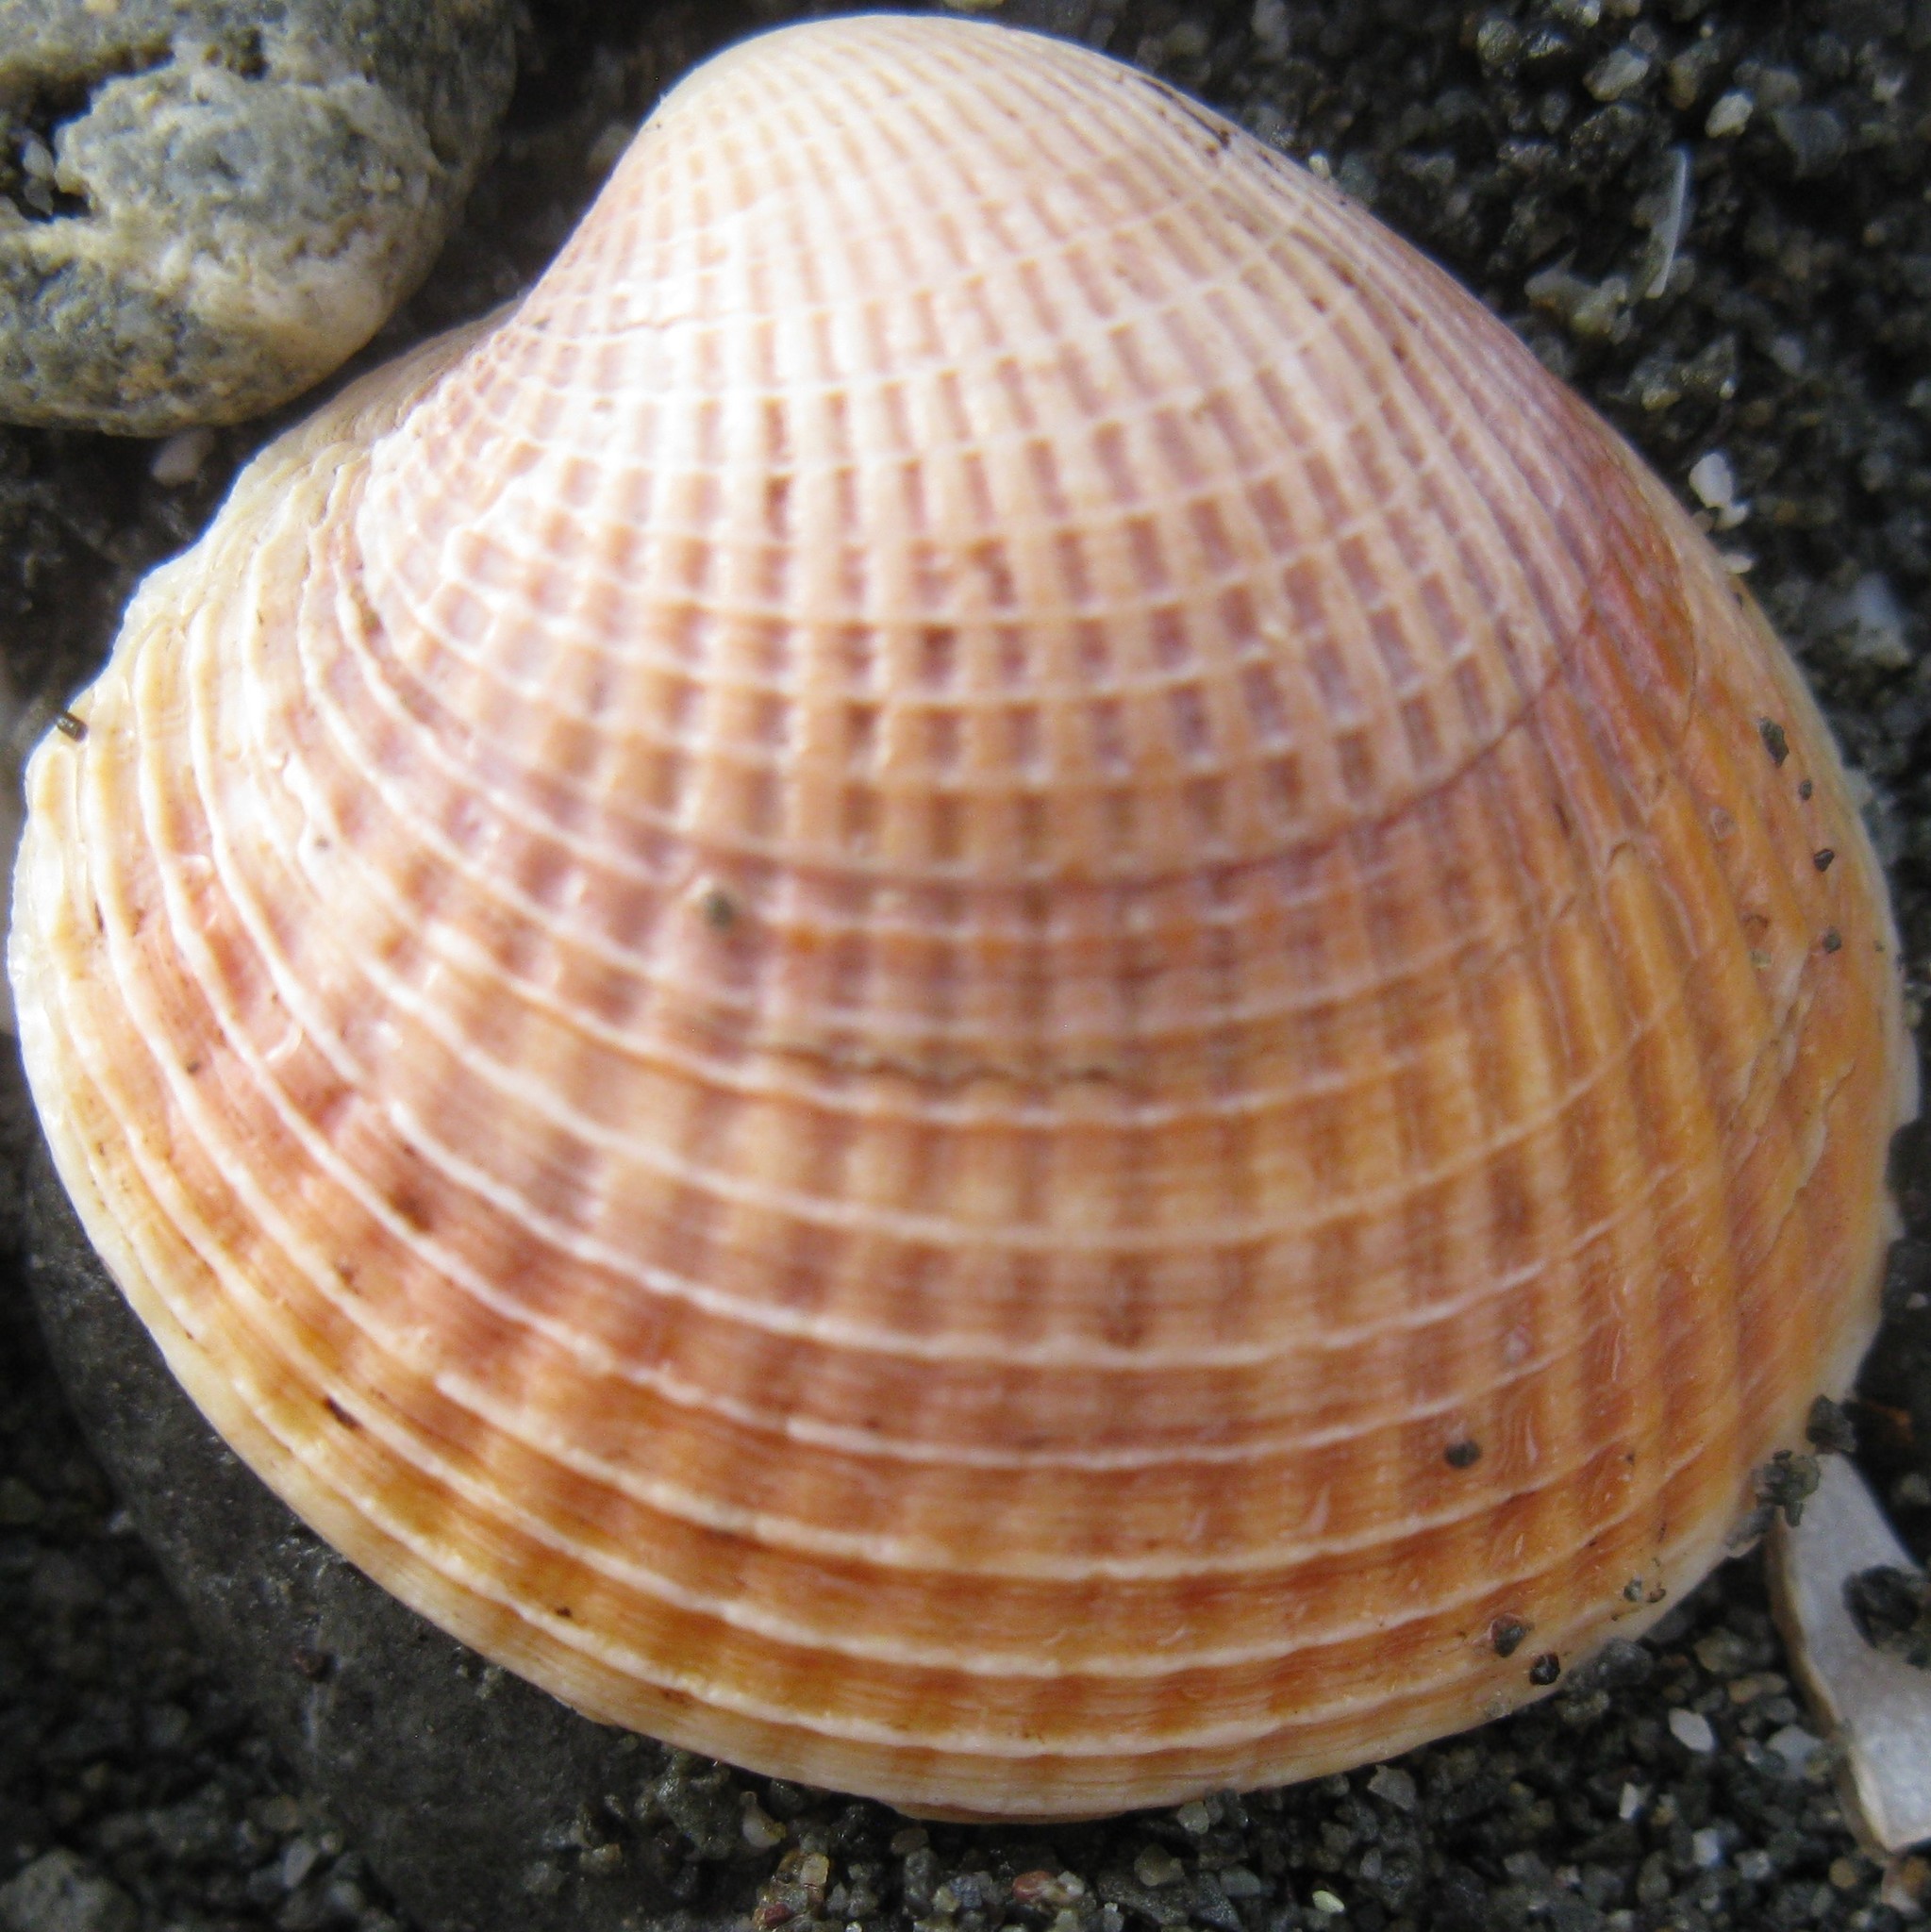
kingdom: Animalia
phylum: Mollusca
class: Bivalvia
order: Venerida
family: Veneridae
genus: Austrovenus
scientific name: Austrovenus stutchburyi
